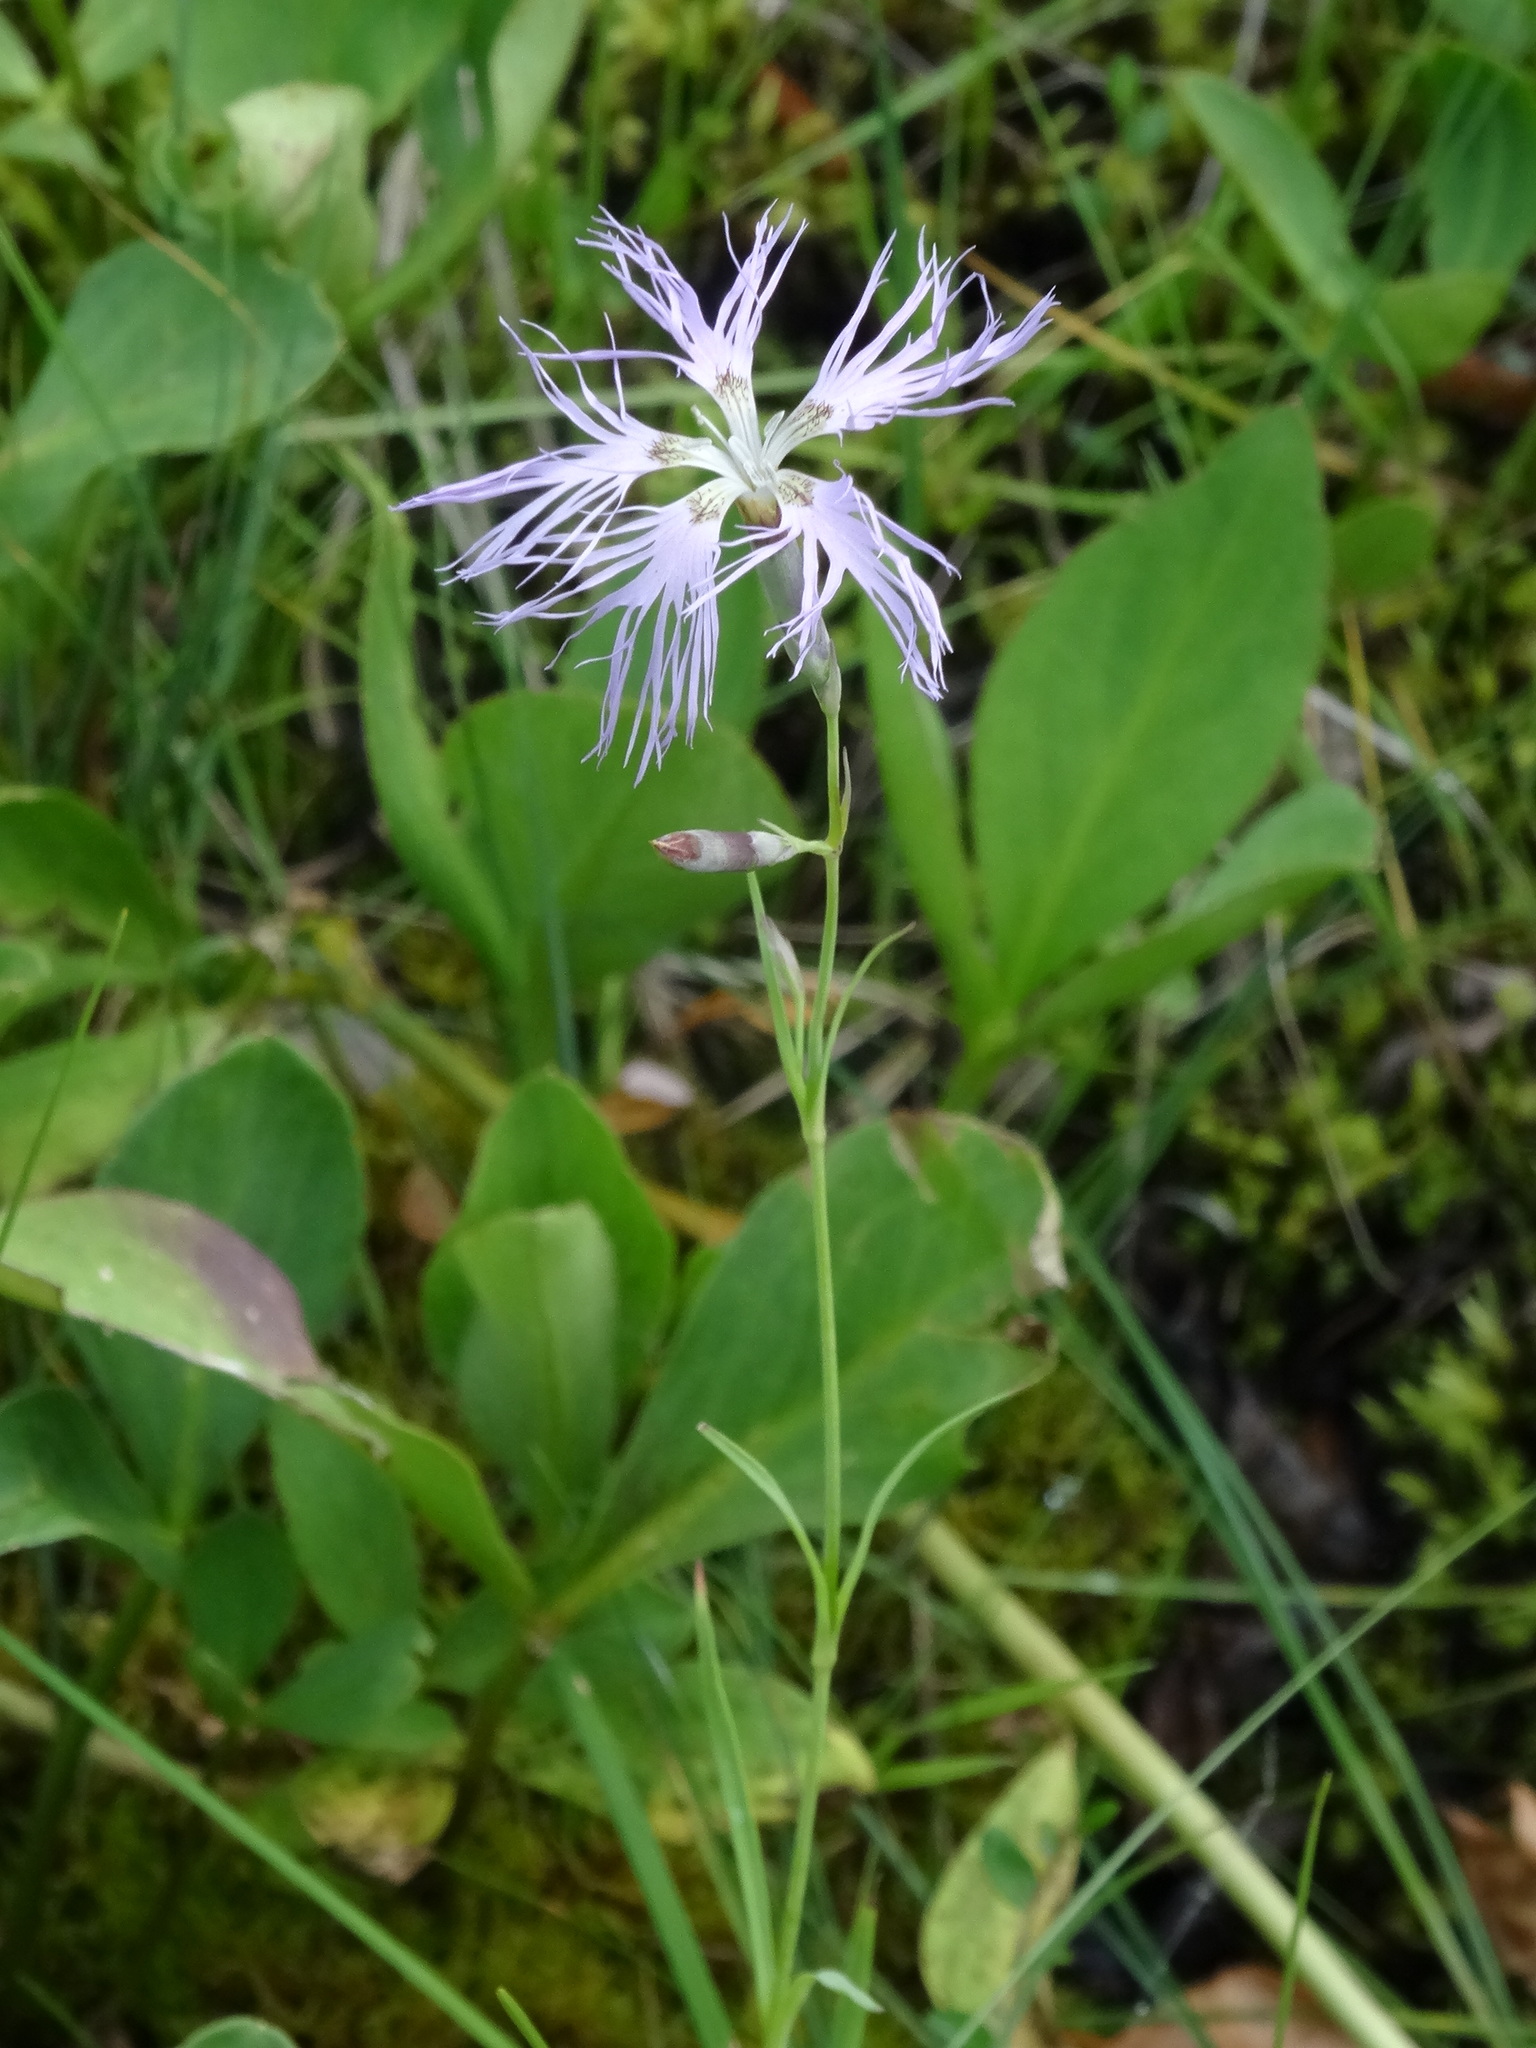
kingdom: Plantae
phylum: Tracheophyta
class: Magnoliopsida
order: Caryophyllales
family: Caryophyllaceae
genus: Dianthus
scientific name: Dianthus superbus
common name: Fringed pink
